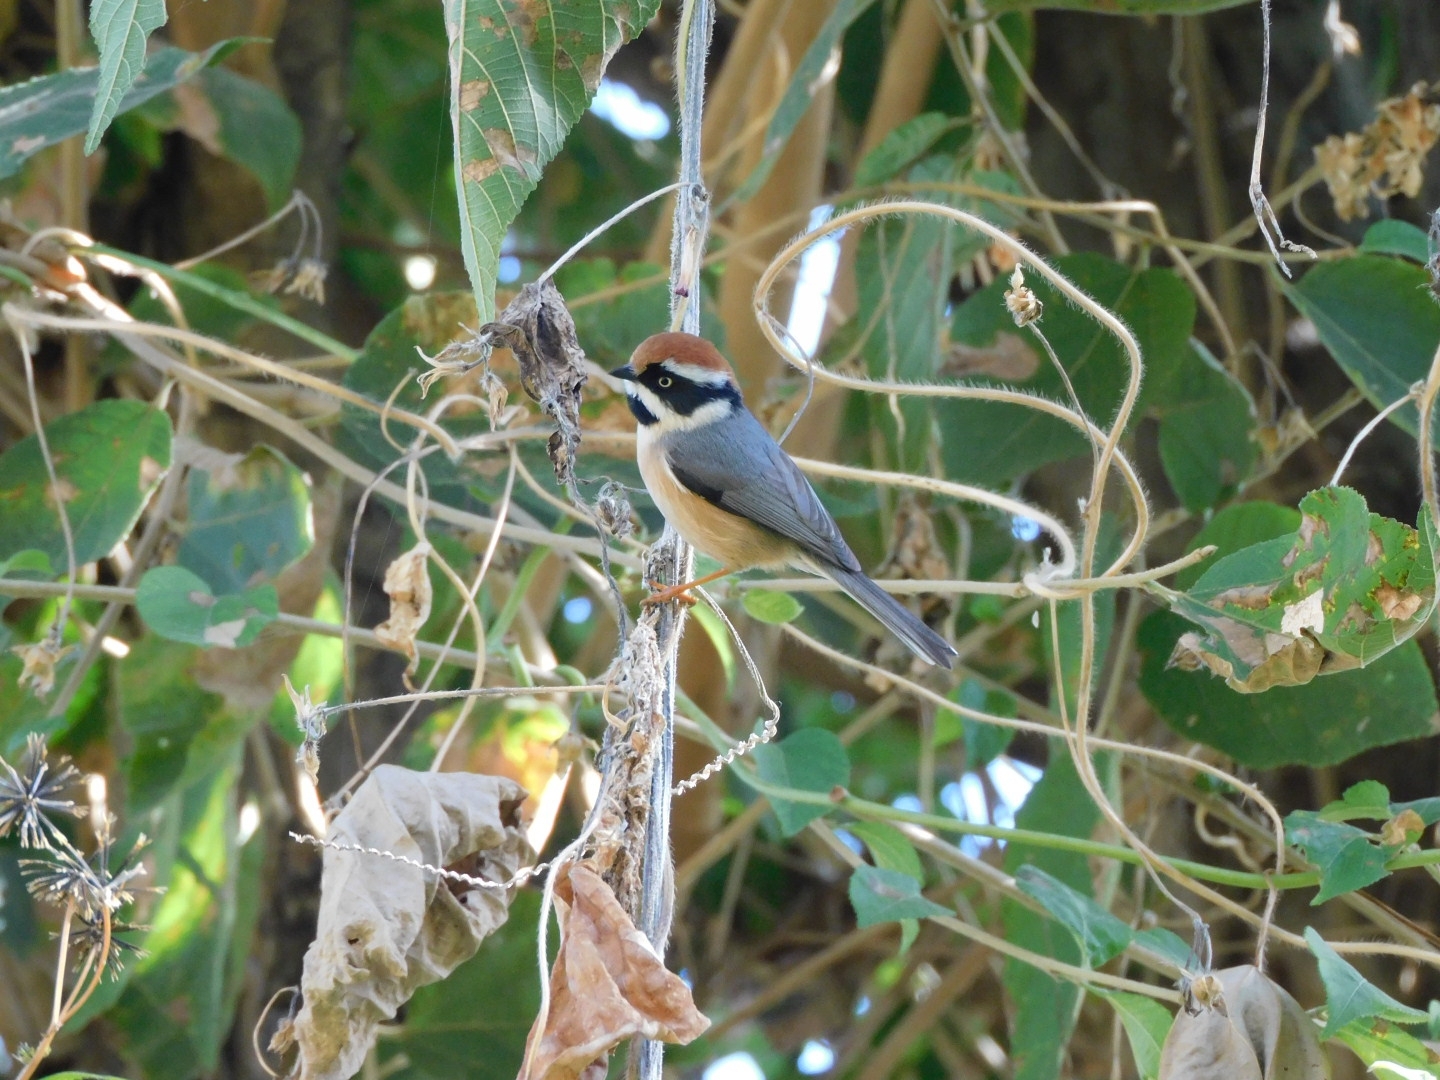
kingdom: Animalia
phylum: Chordata
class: Aves
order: Passeriformes
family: Aegithalidae
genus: Aegithalos
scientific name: Aegithalos concinnus
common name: Black-throated bushtit
